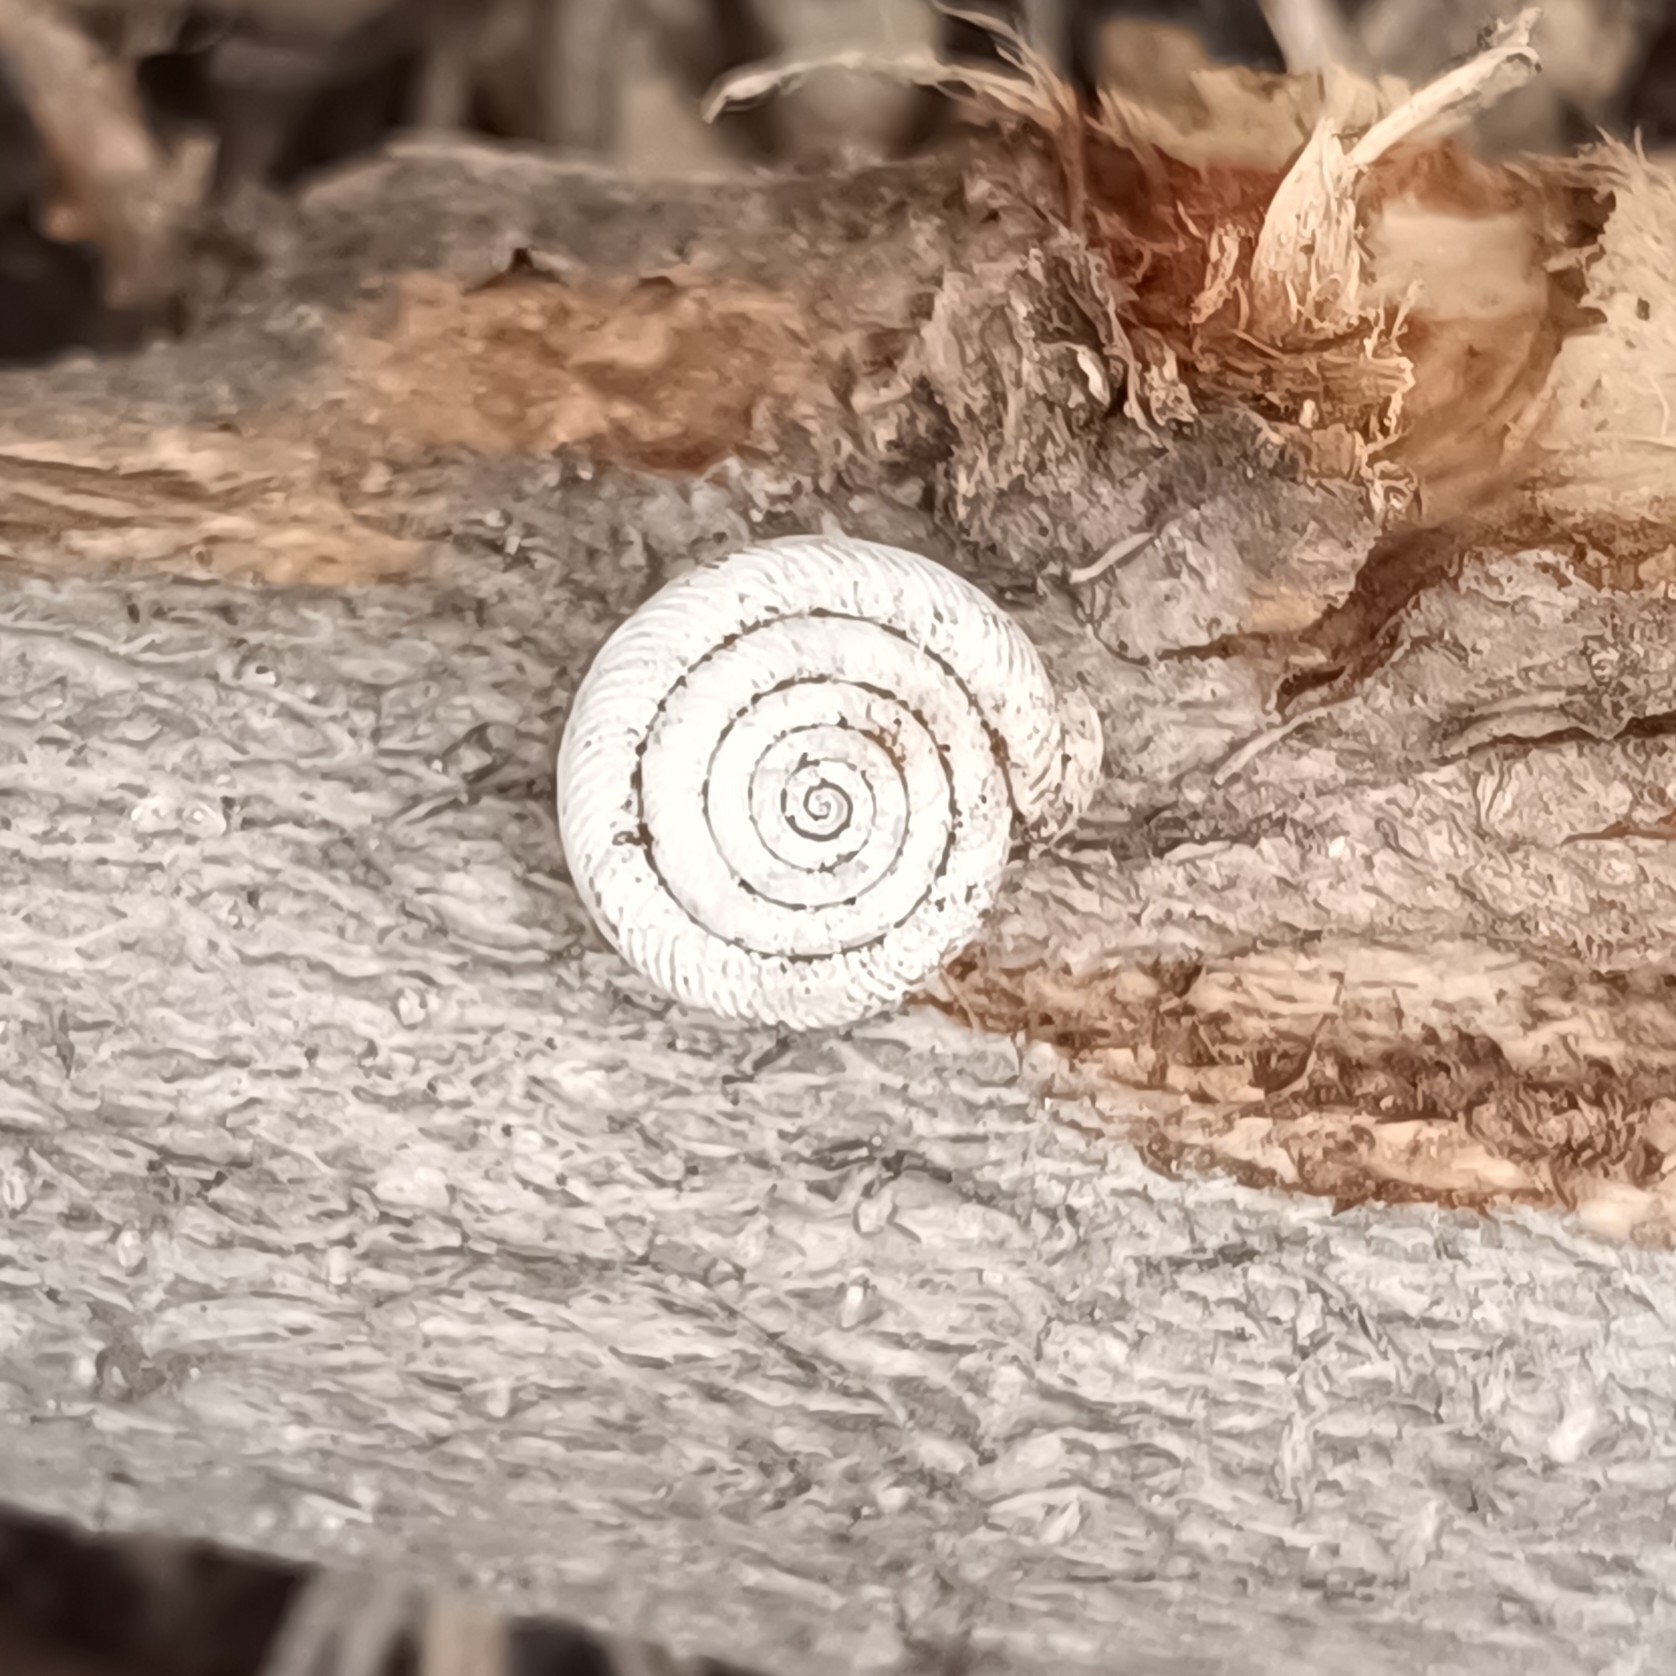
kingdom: Animalia
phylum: Mollusca
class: Gastropoda
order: Stylommatophora
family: Polygyridae
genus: Polygyra
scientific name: Polygyra cereolus
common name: Southern flatcone snail
